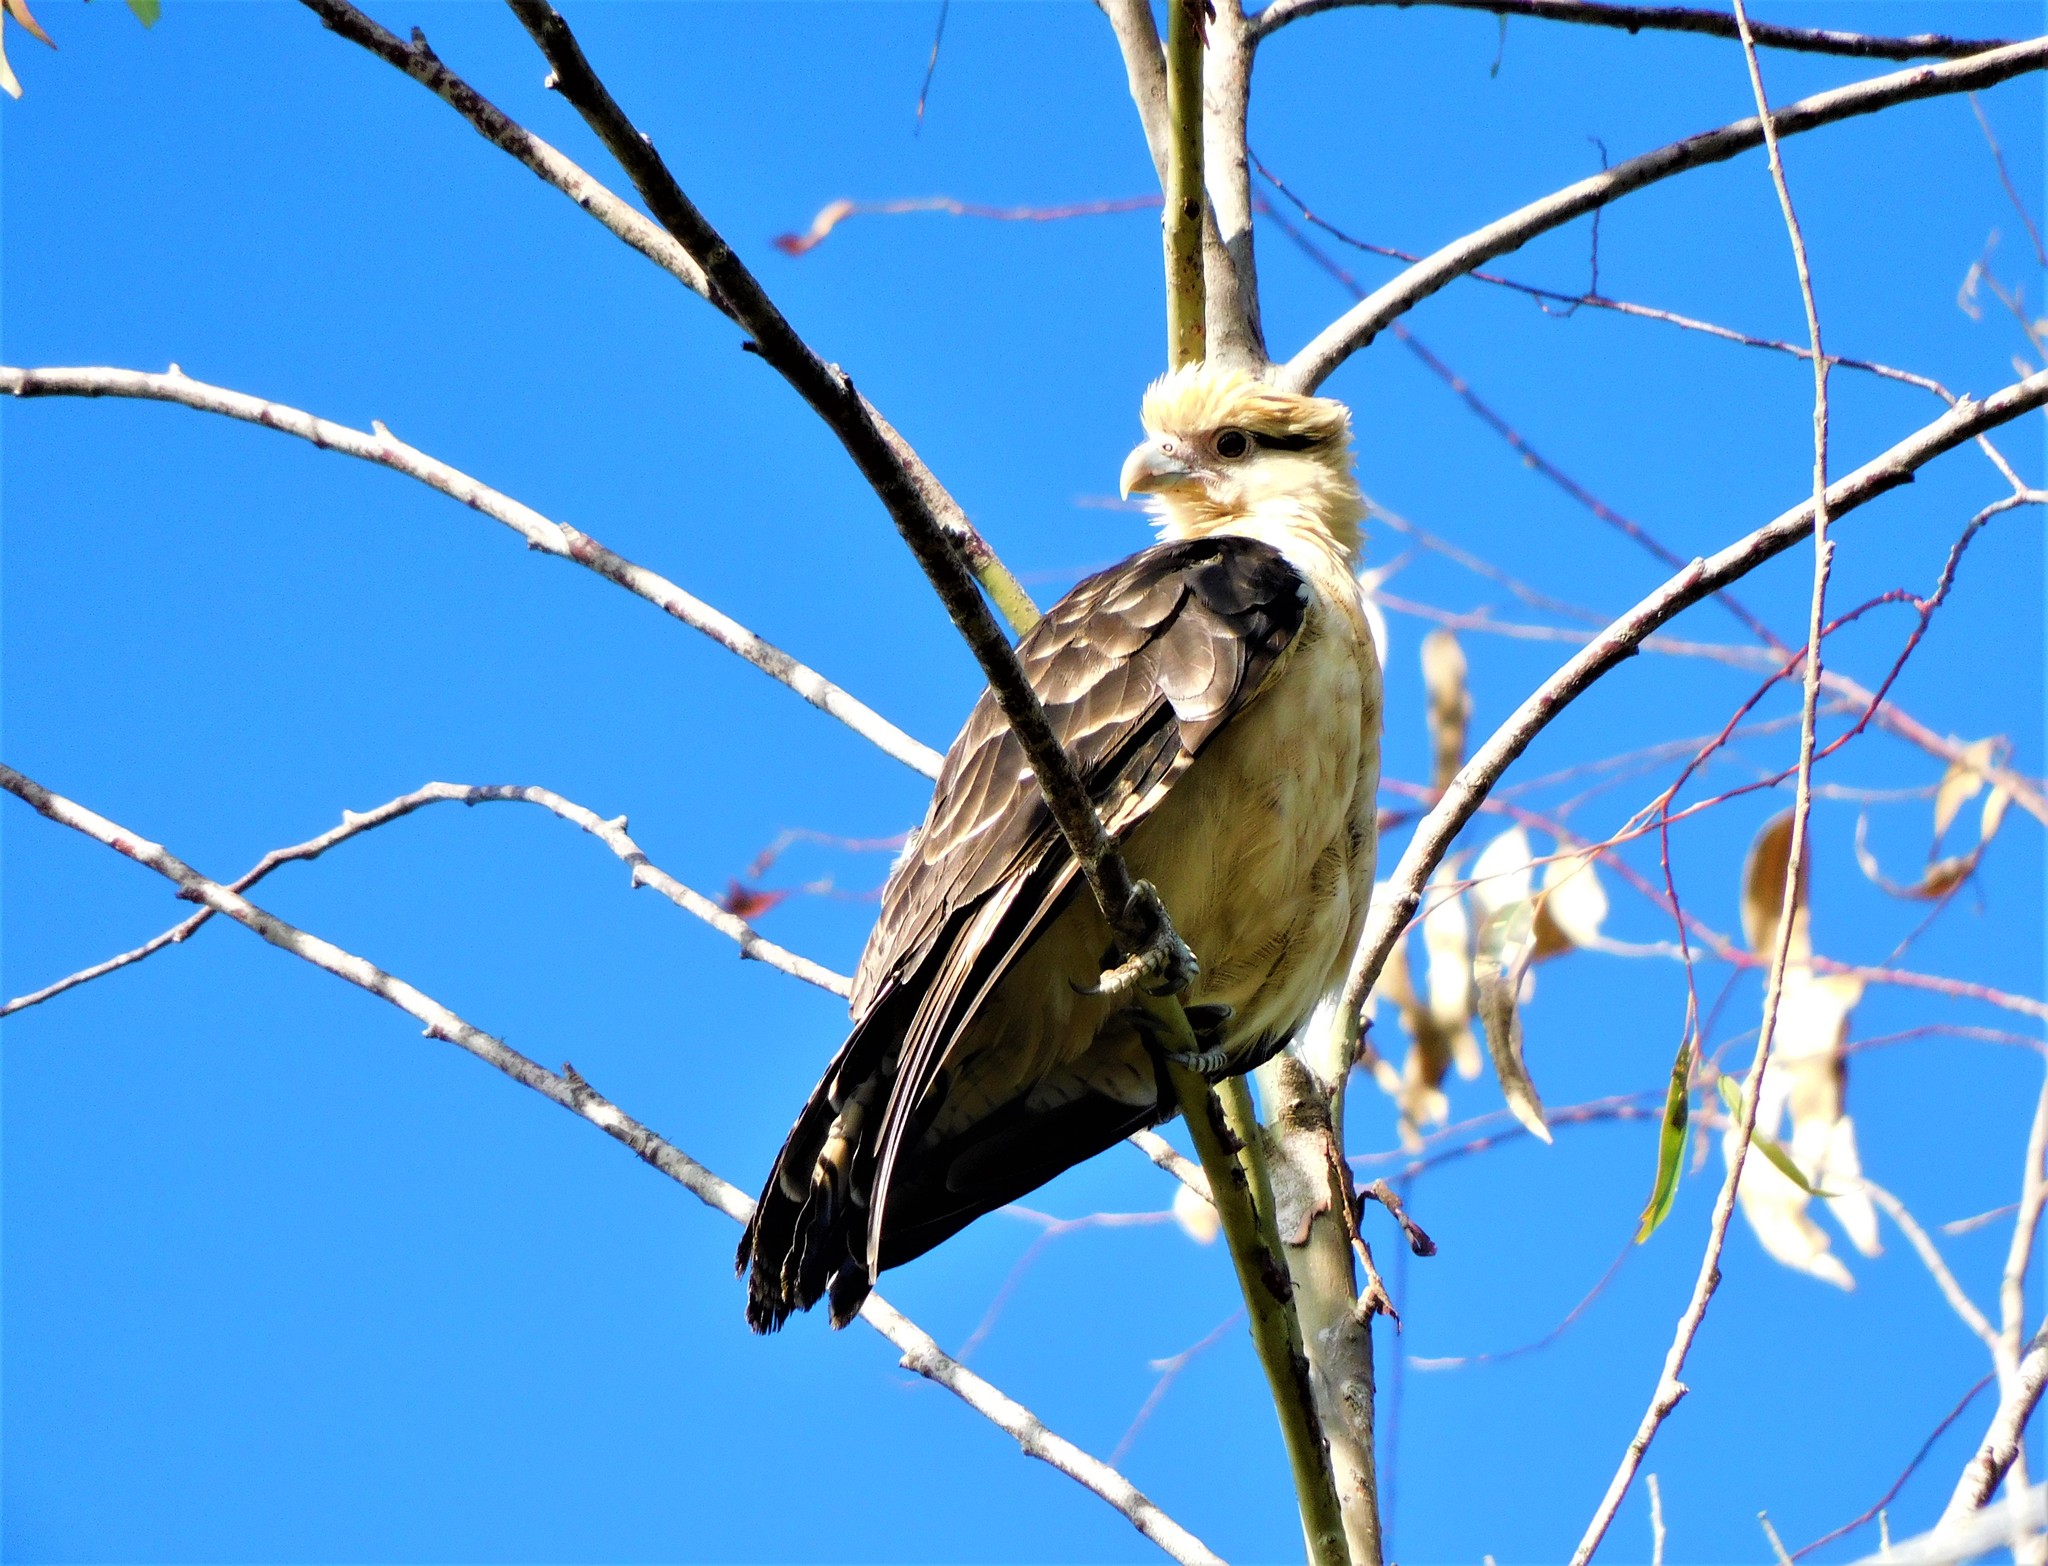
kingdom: Animalia
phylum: Chordata
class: Aves
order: Falconiformes
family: Falconidae
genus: Daptrius
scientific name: Daptrius
